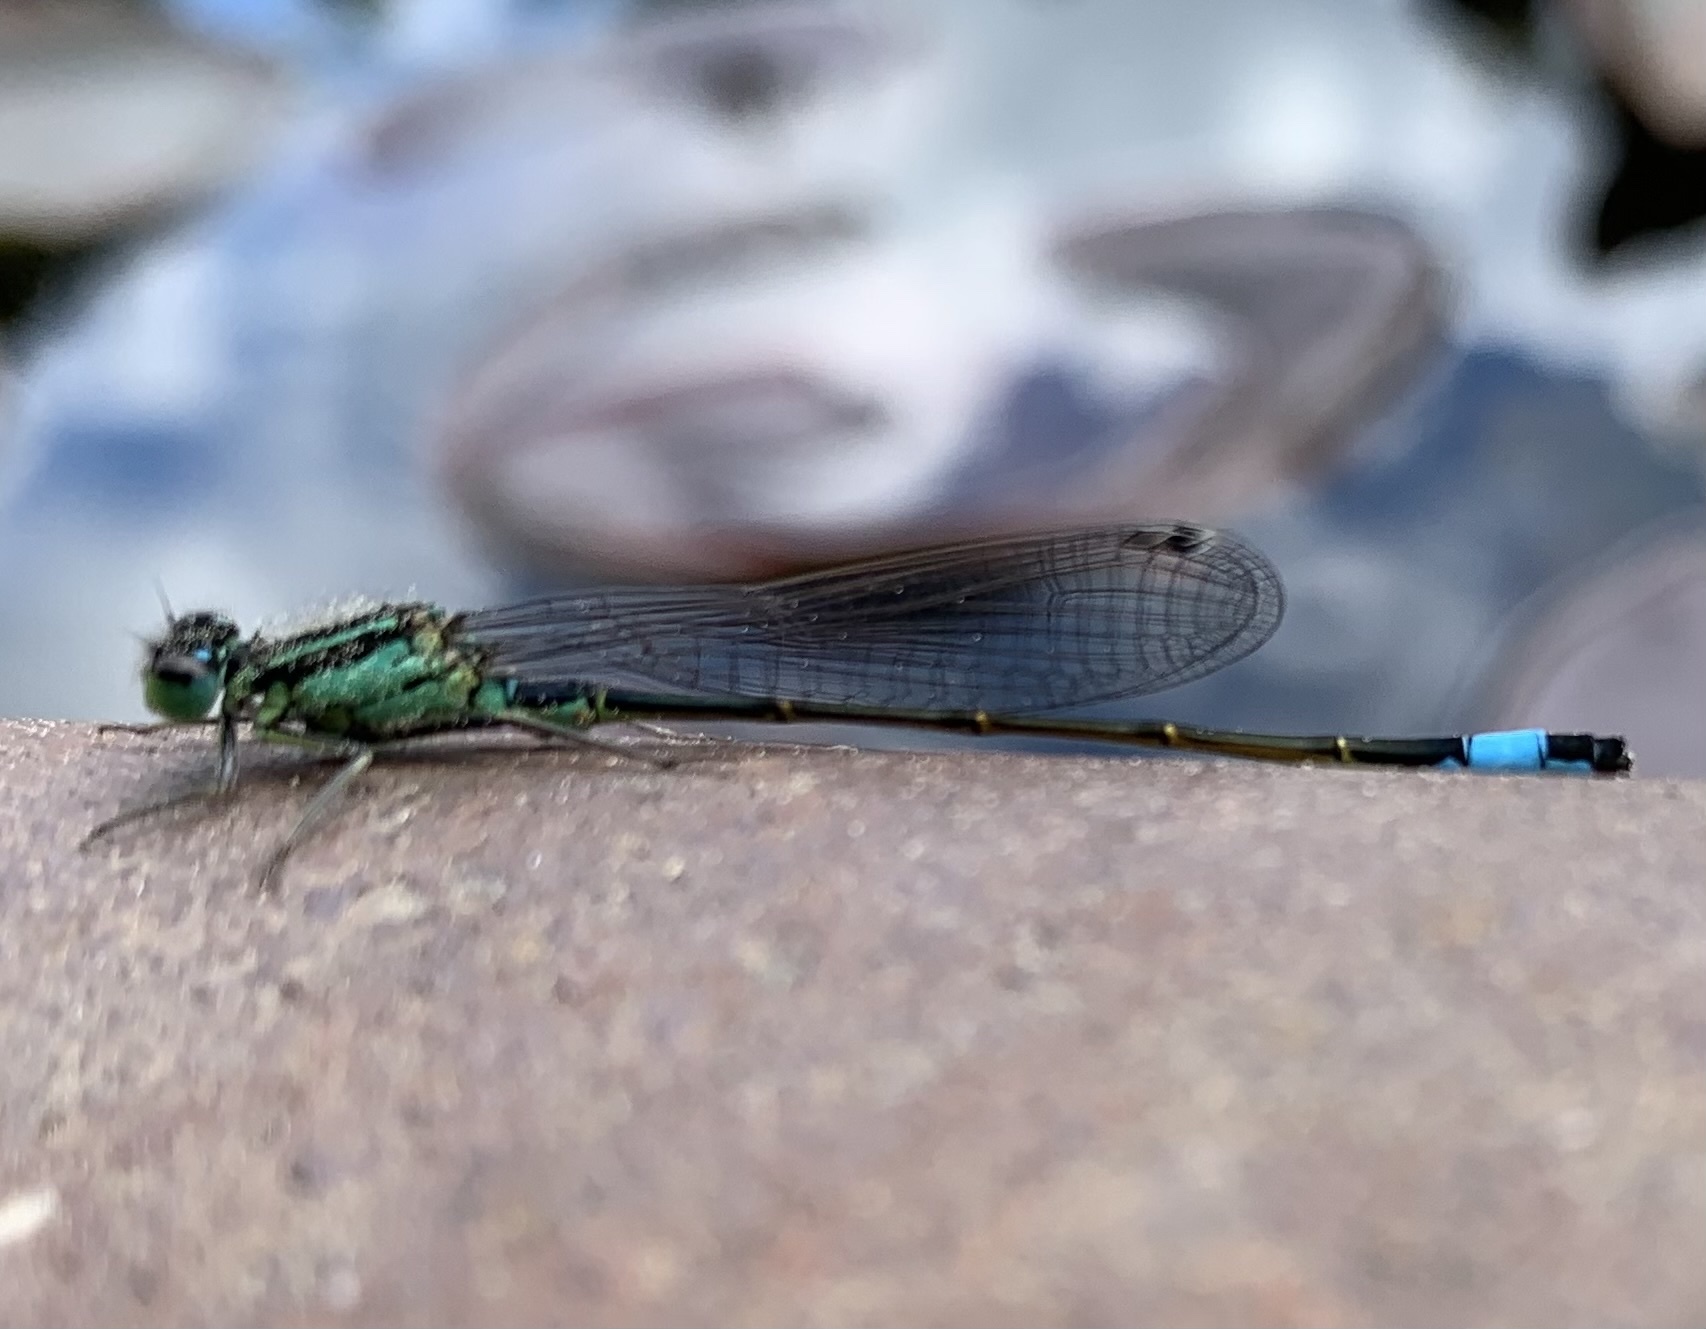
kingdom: Animalia
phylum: Arthropoda
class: Insecta
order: Odonata
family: Coenagrionidae
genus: Ischnura
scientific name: Ischnura elegans
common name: Blue-tailed damselfly
